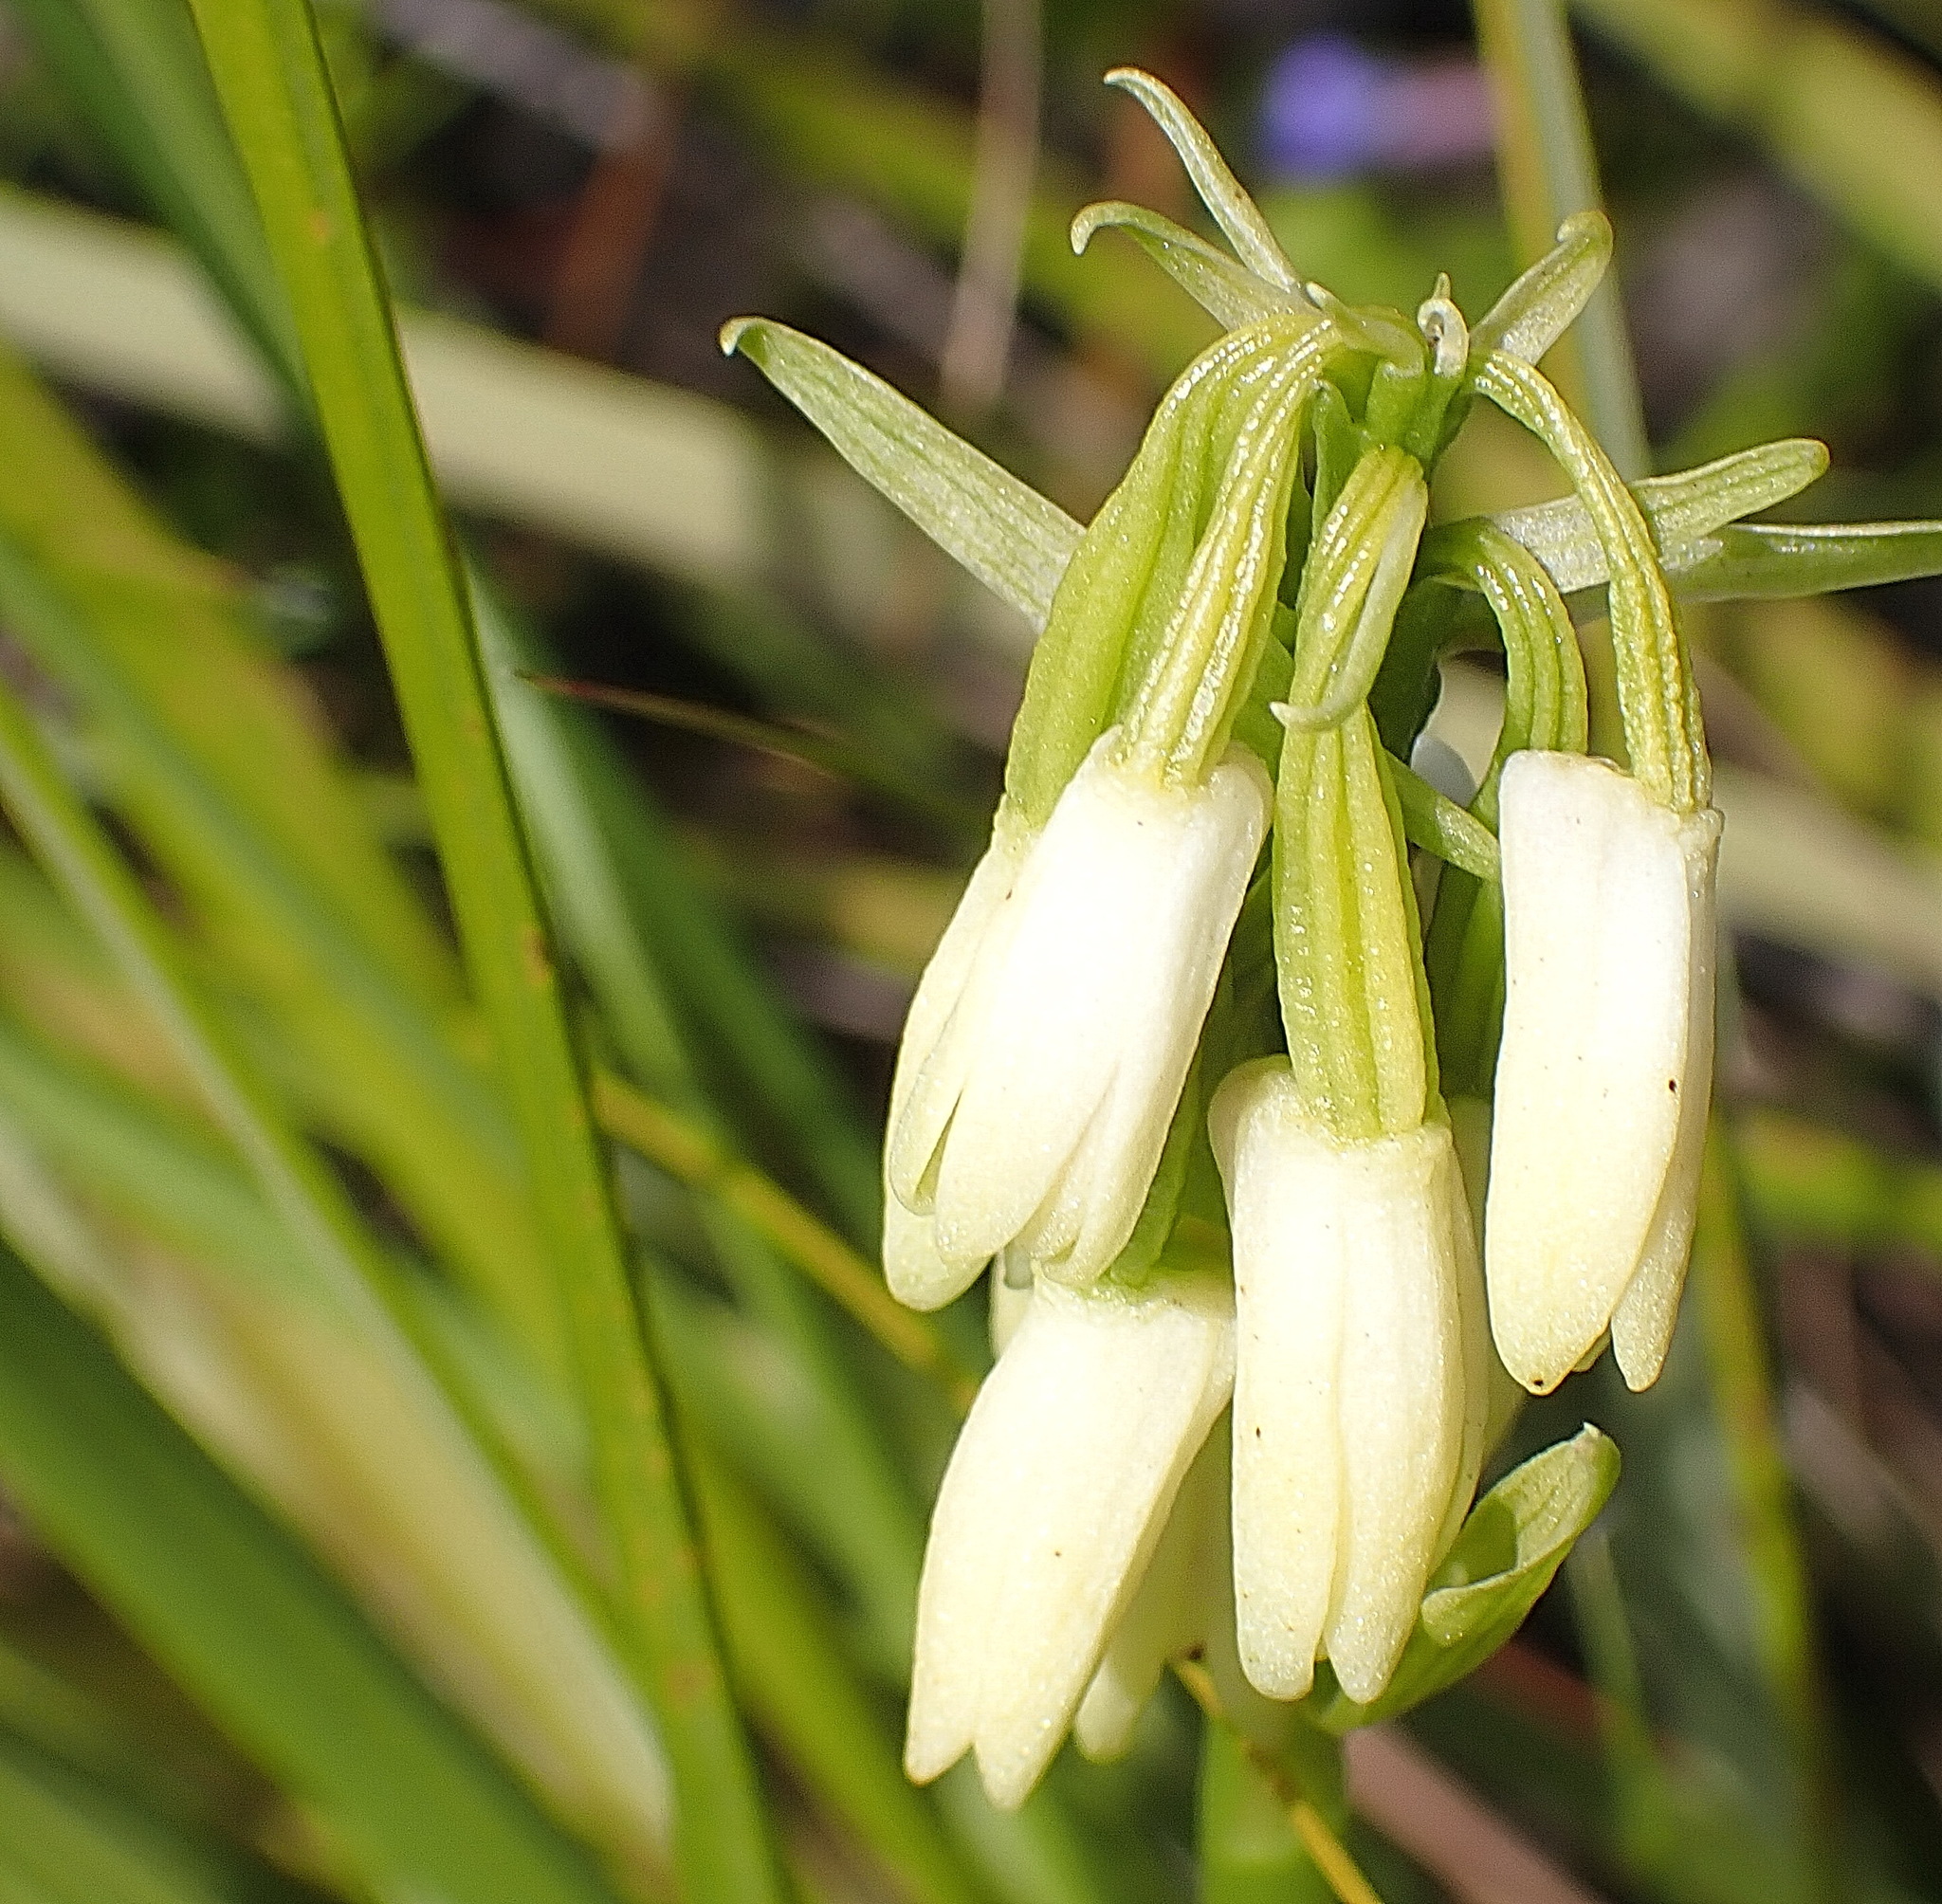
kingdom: Plantae
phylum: Tracheophyta
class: Liliopsida
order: Asparagales
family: Orchidaceae
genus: Eulophia
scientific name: Eulophia aculeata
